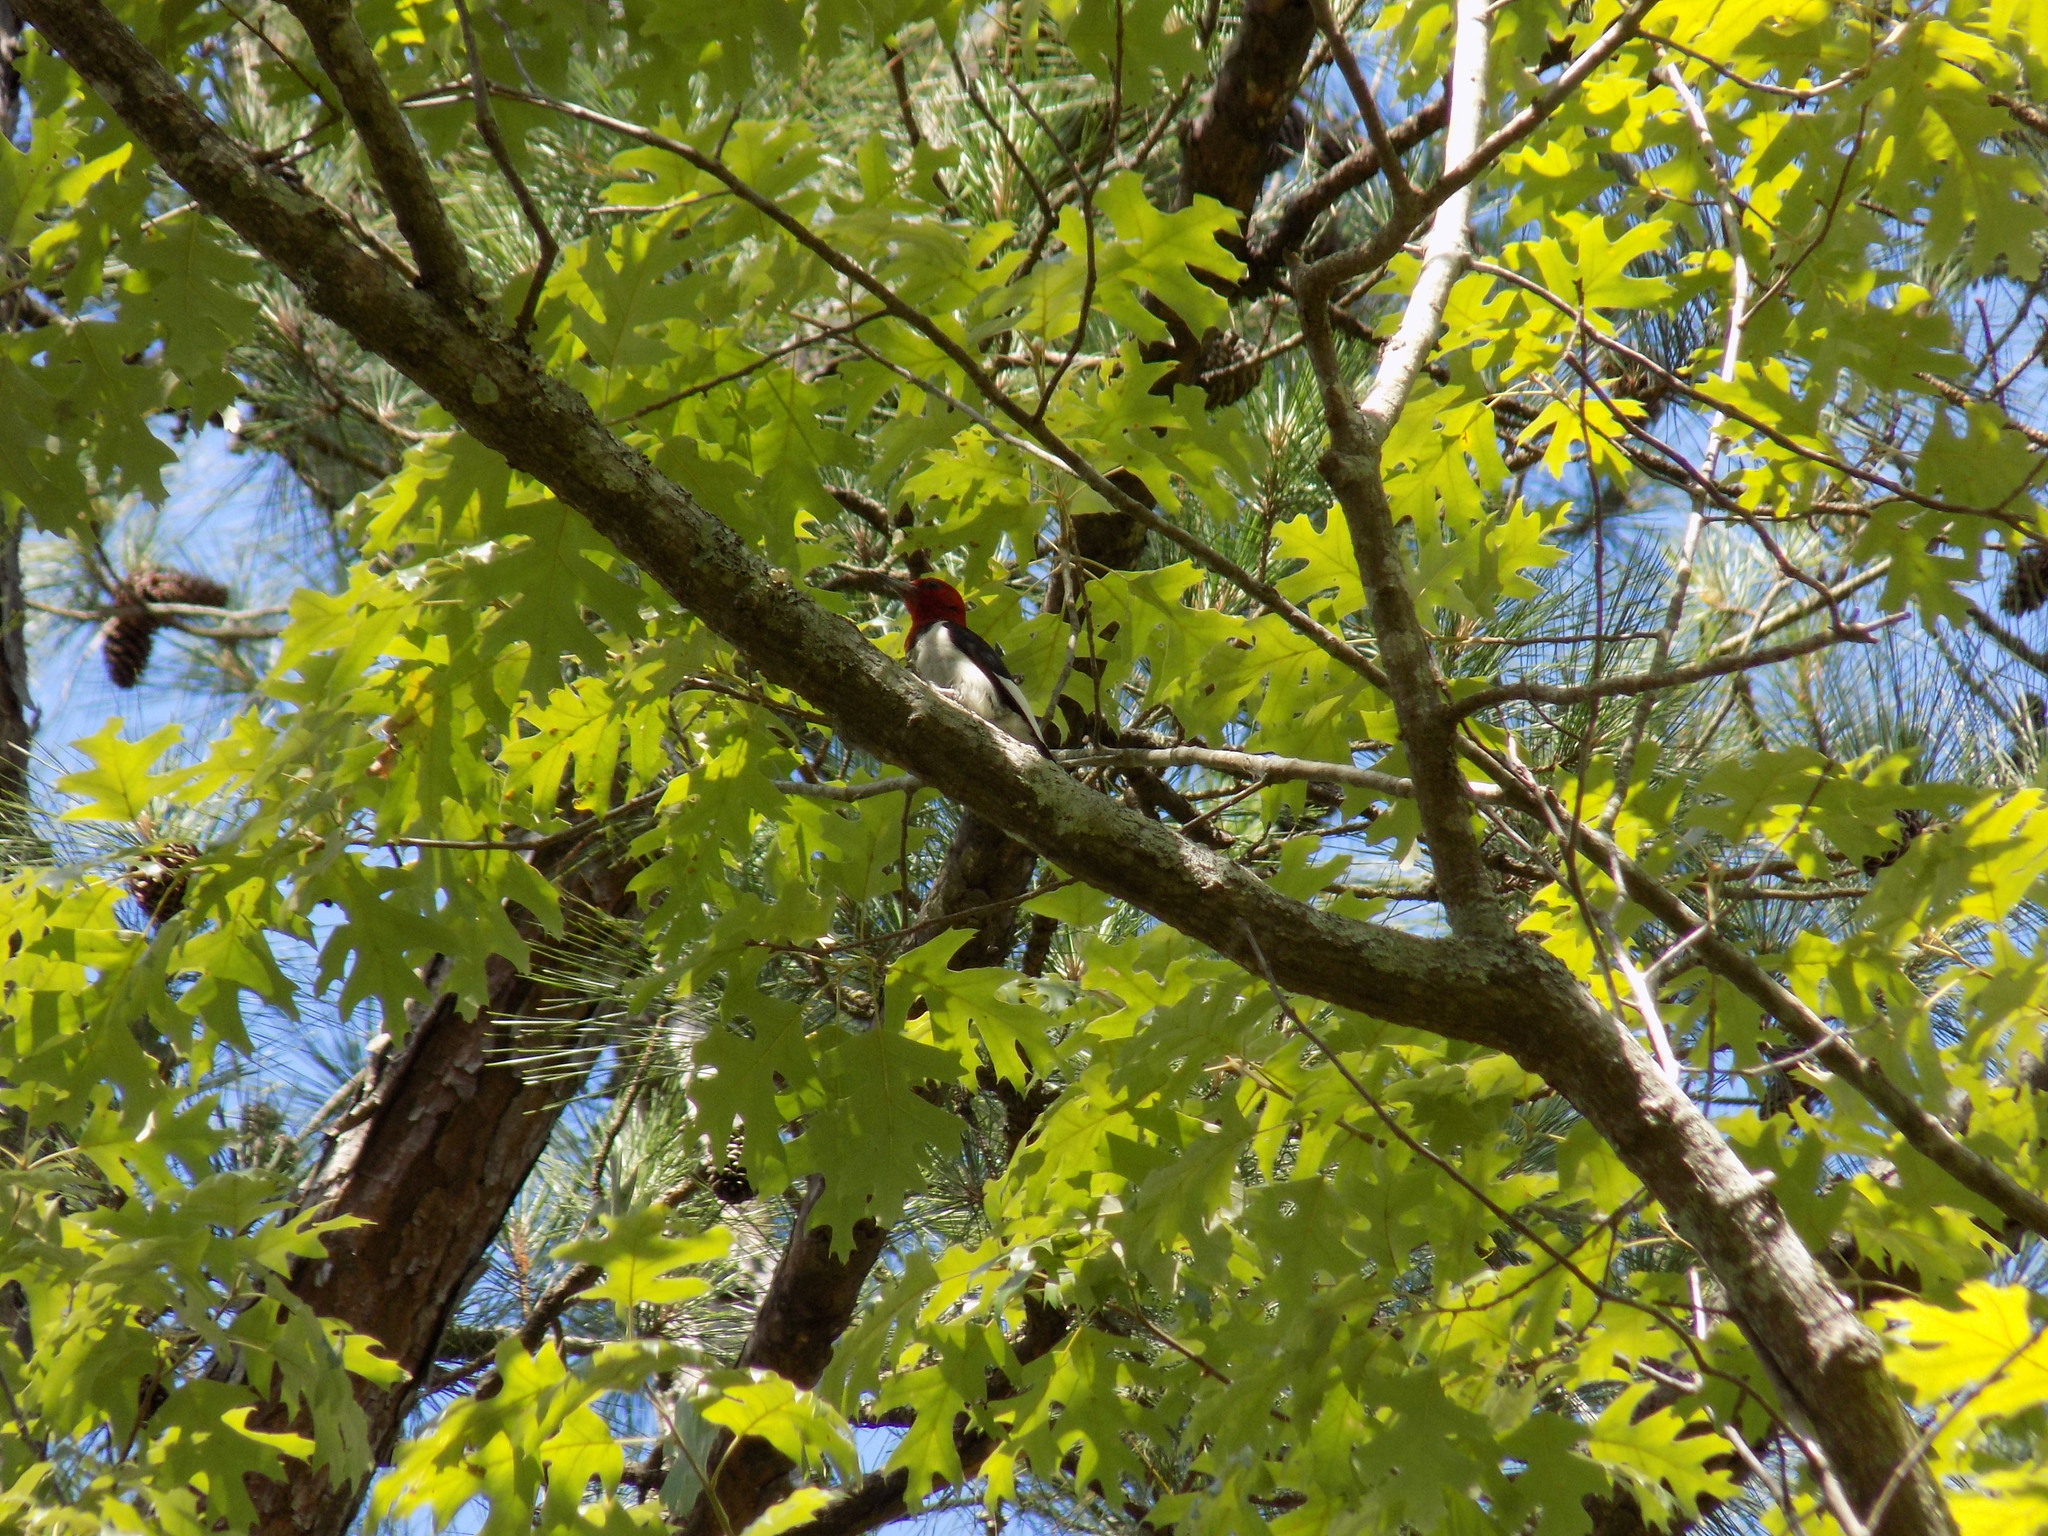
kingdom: Animalia
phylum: Chordata
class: Aves
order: Piciformes
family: Picidae
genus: Melanerpes
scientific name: Melanerpes erythrocephalus
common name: Red-headed woodpecker
